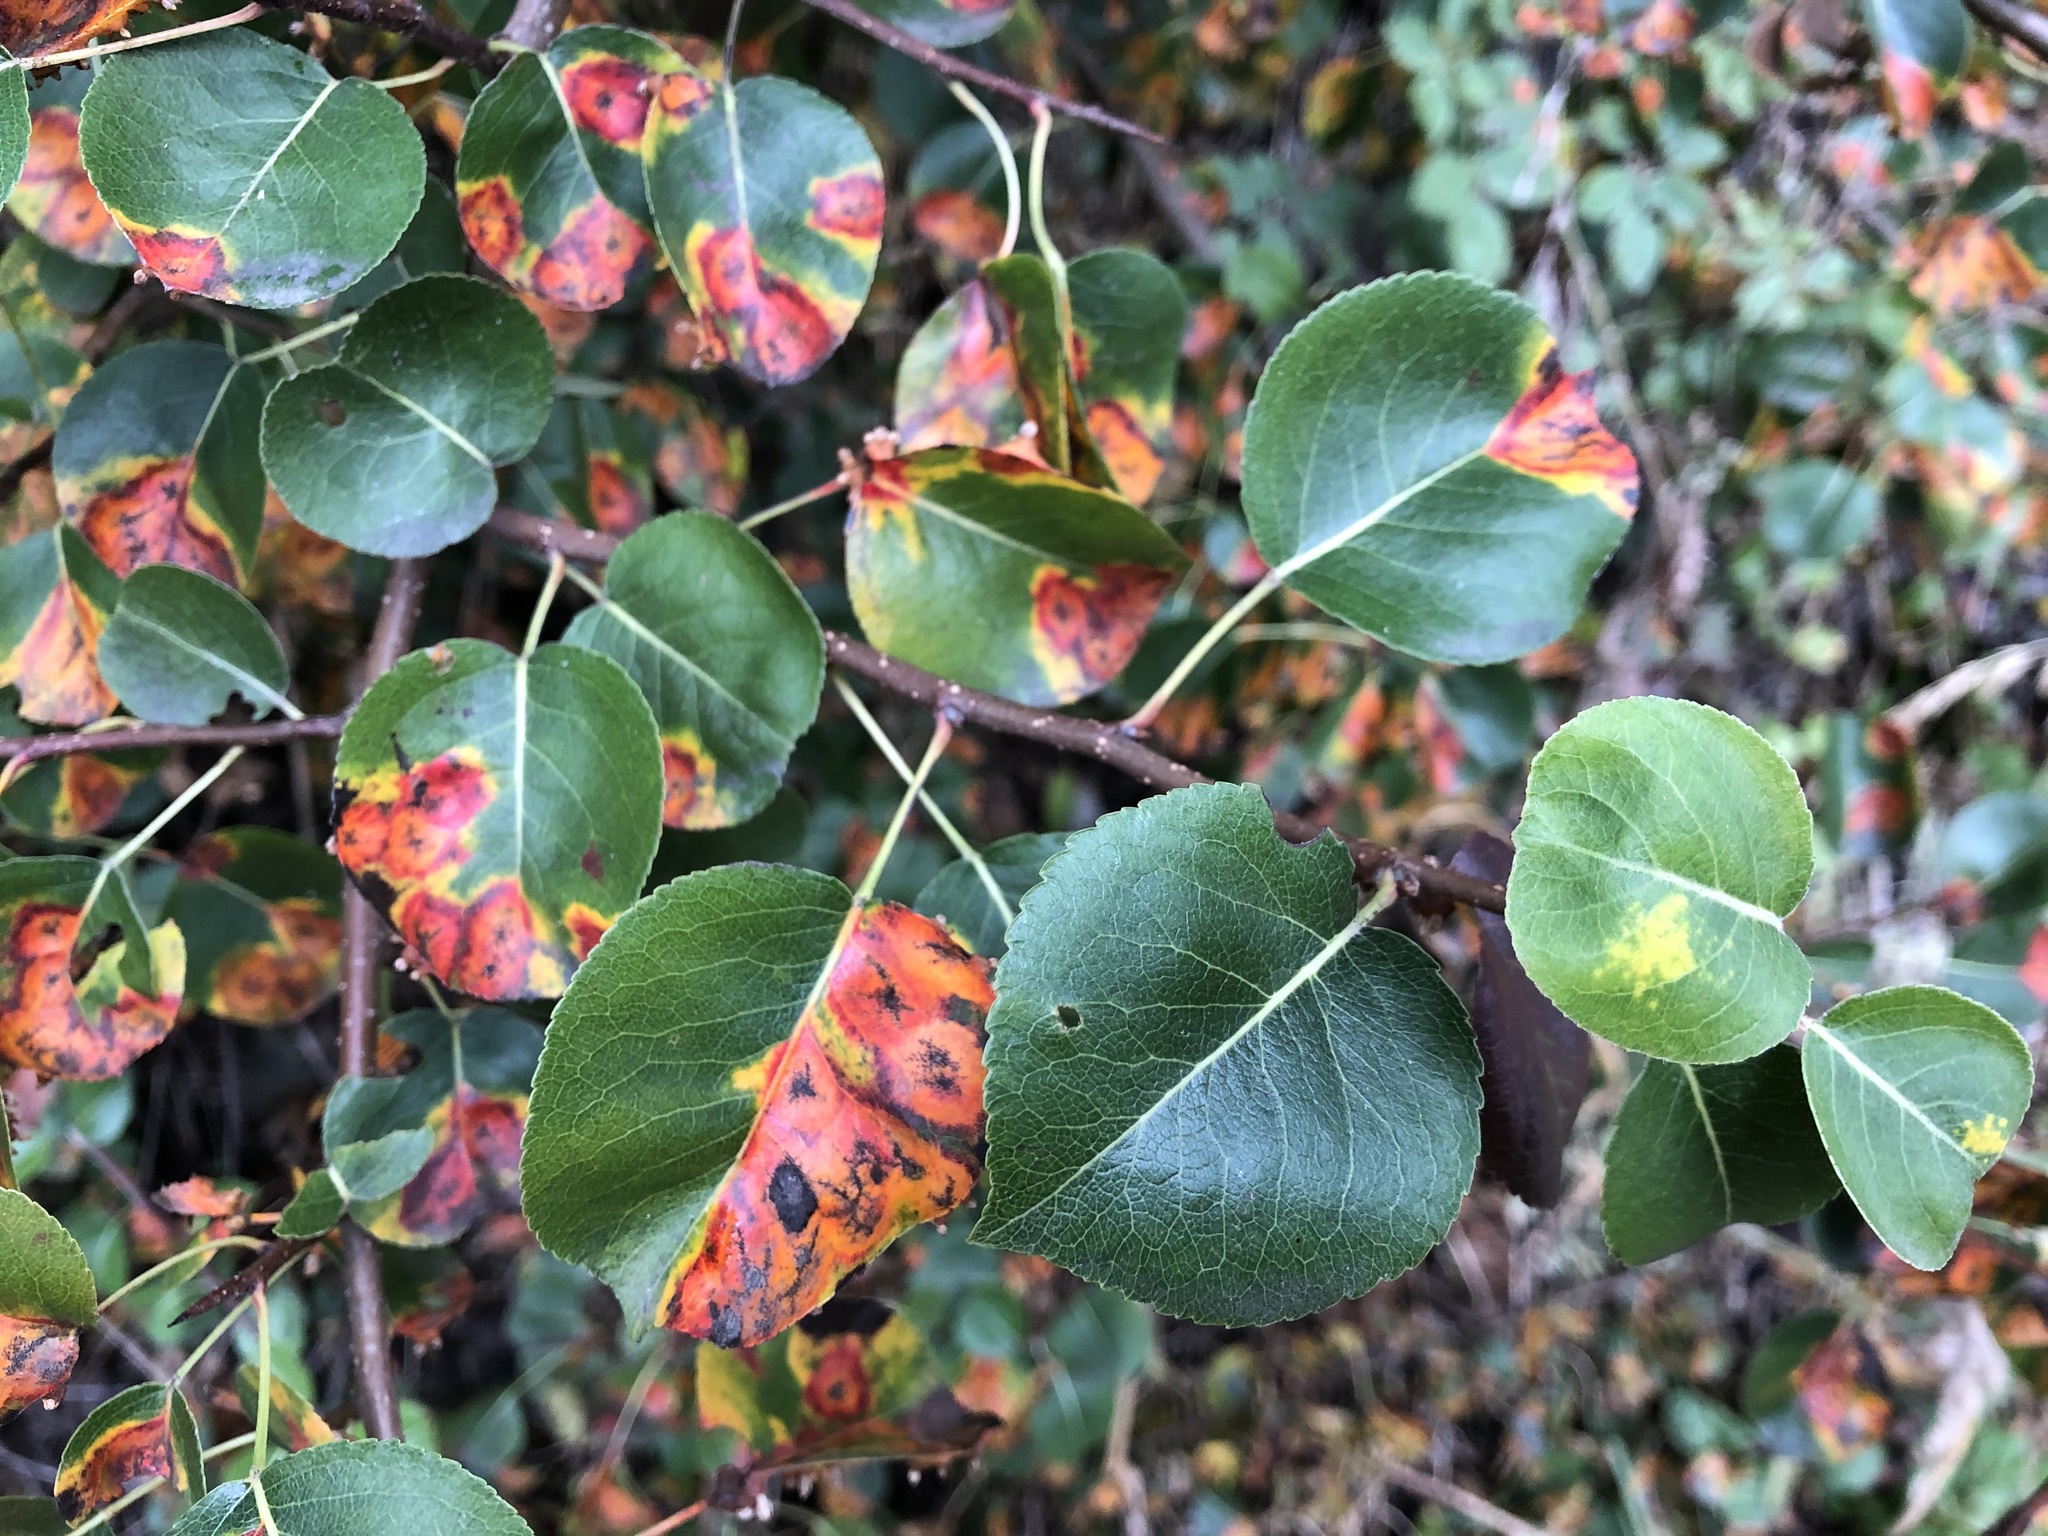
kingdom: Plantae
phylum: Tracheophyta
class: Magnoliopsida
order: Rosales
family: Rosaceae
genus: Pyrus
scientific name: Pyrus communis
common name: Pear
